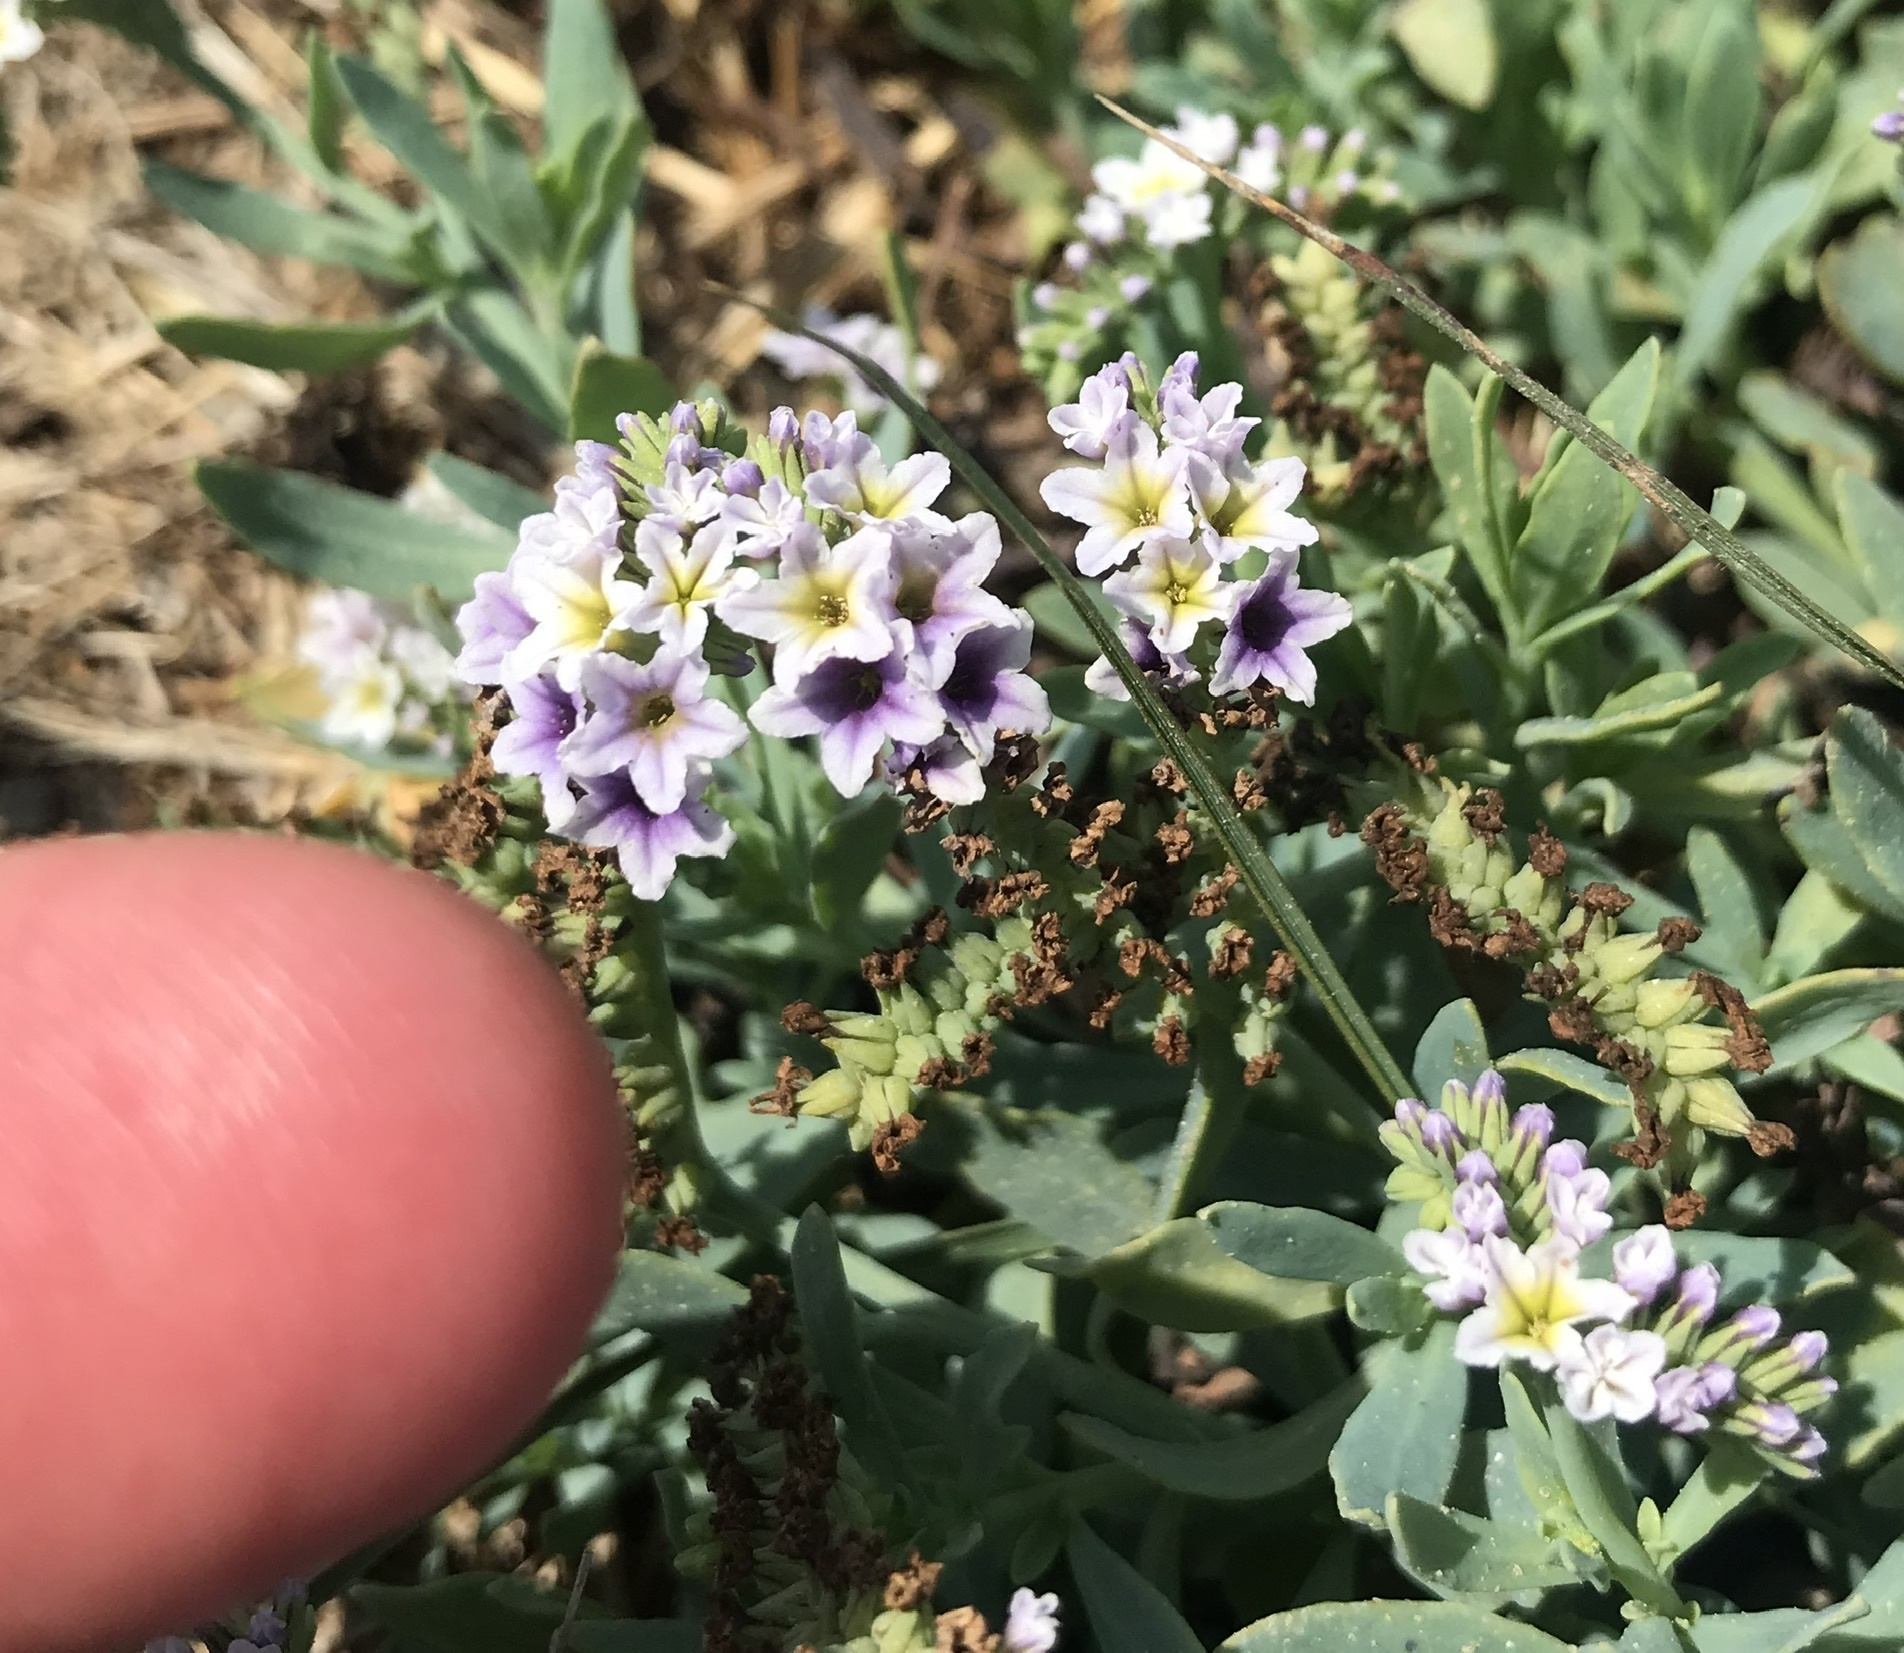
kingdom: Plantae
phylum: Tracheophyta
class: Magnoliopsida
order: Boraginales
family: Heliotropiaceae
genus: Heliotropium
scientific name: Heliotropium curassavicum
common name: Seaside heliotrope
